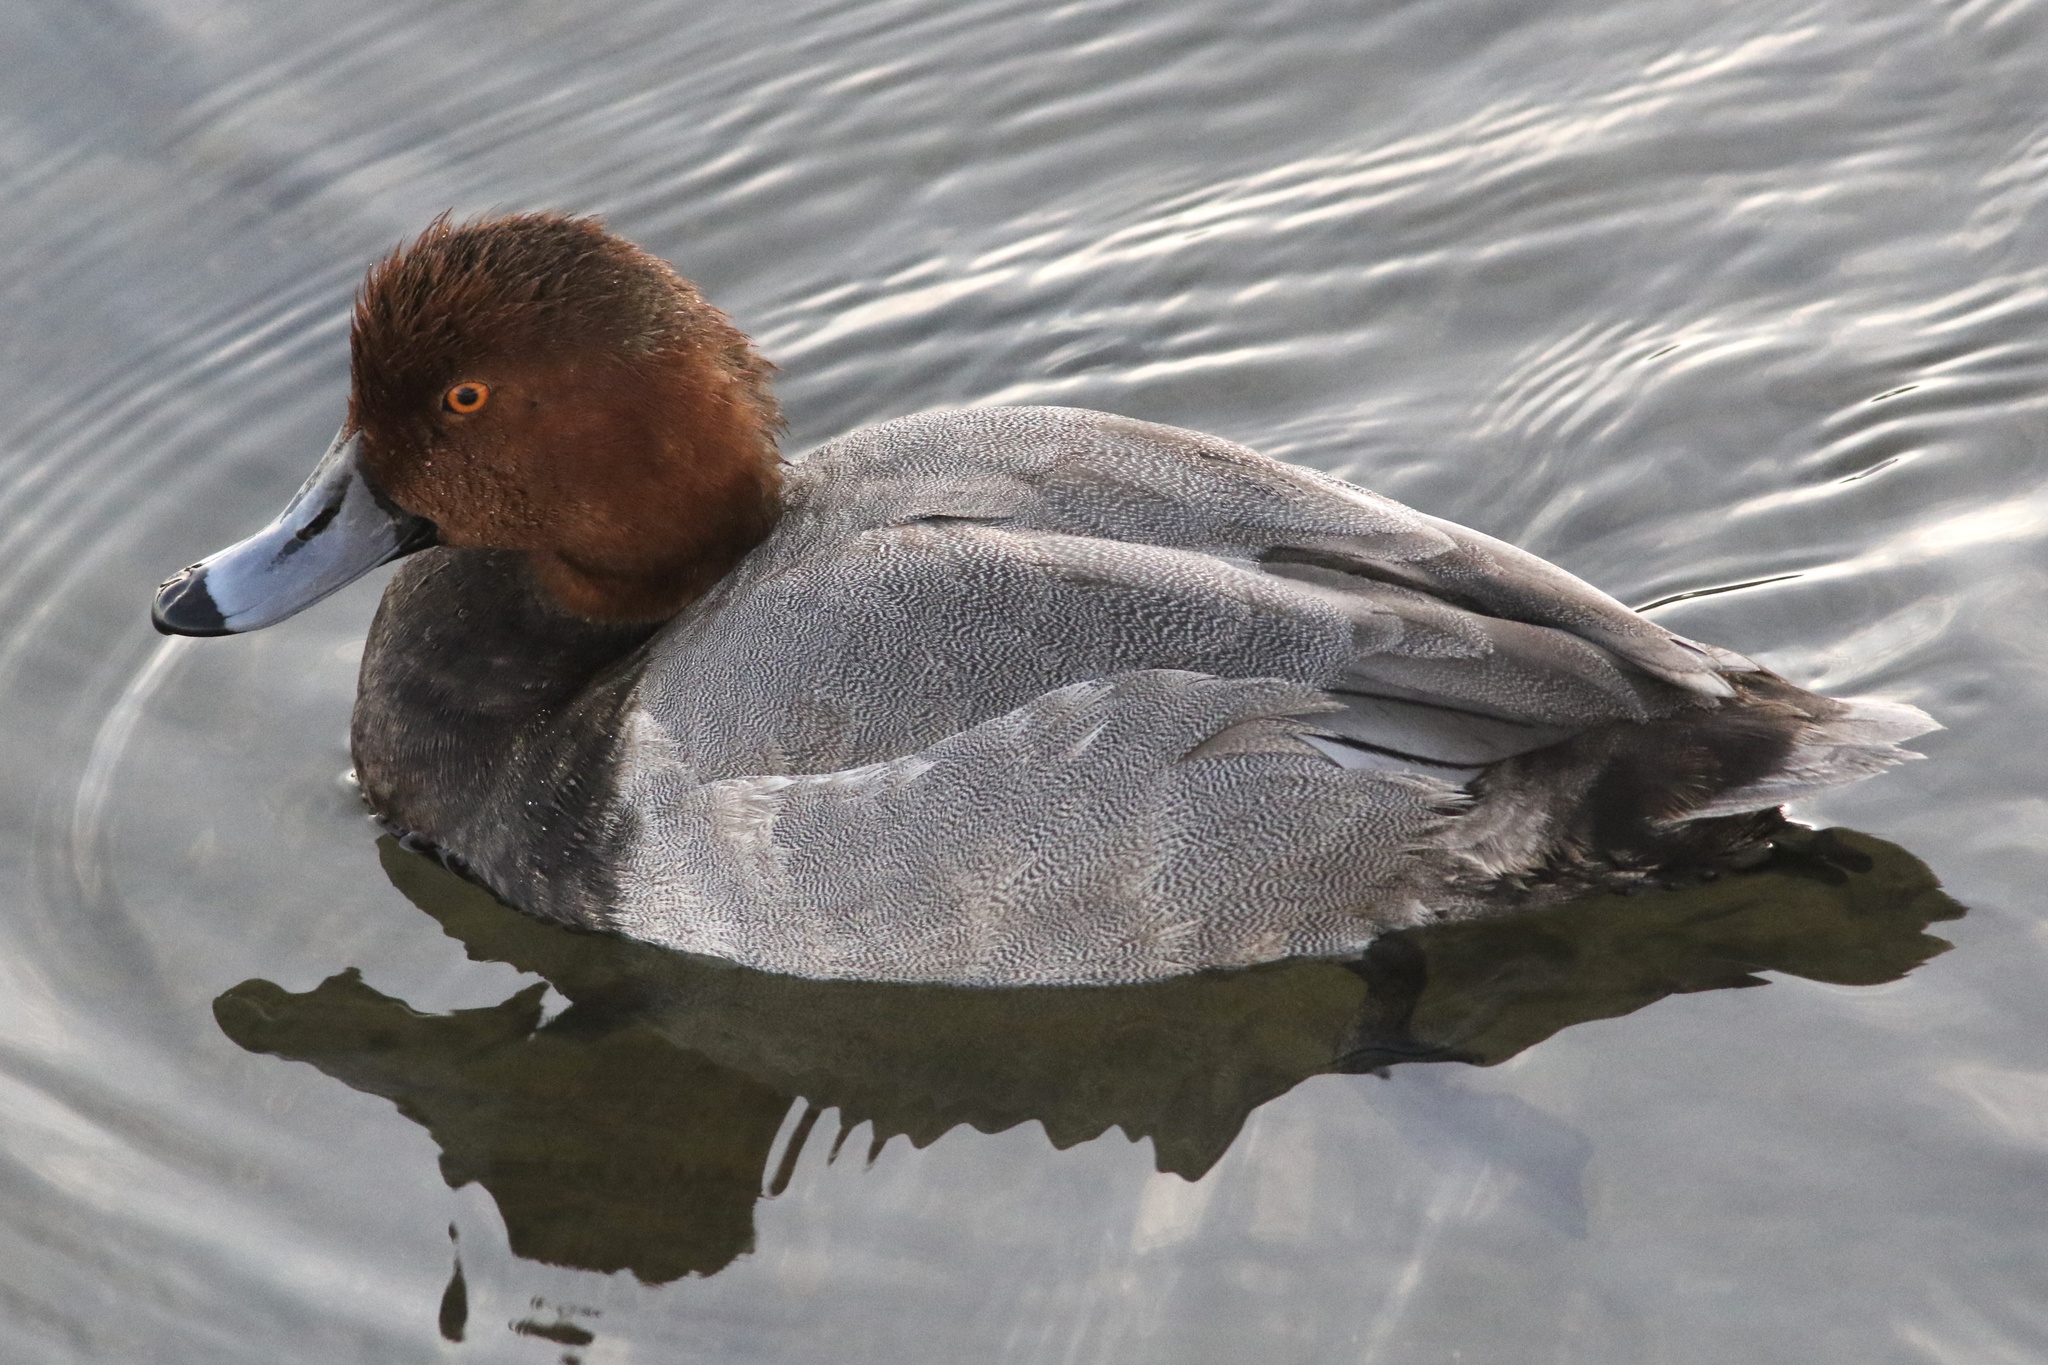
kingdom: Animalia
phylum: Chordata
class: Aves
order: Anseriformes
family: Anatidae
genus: Aythya
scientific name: Aythya americana
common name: Redhead
